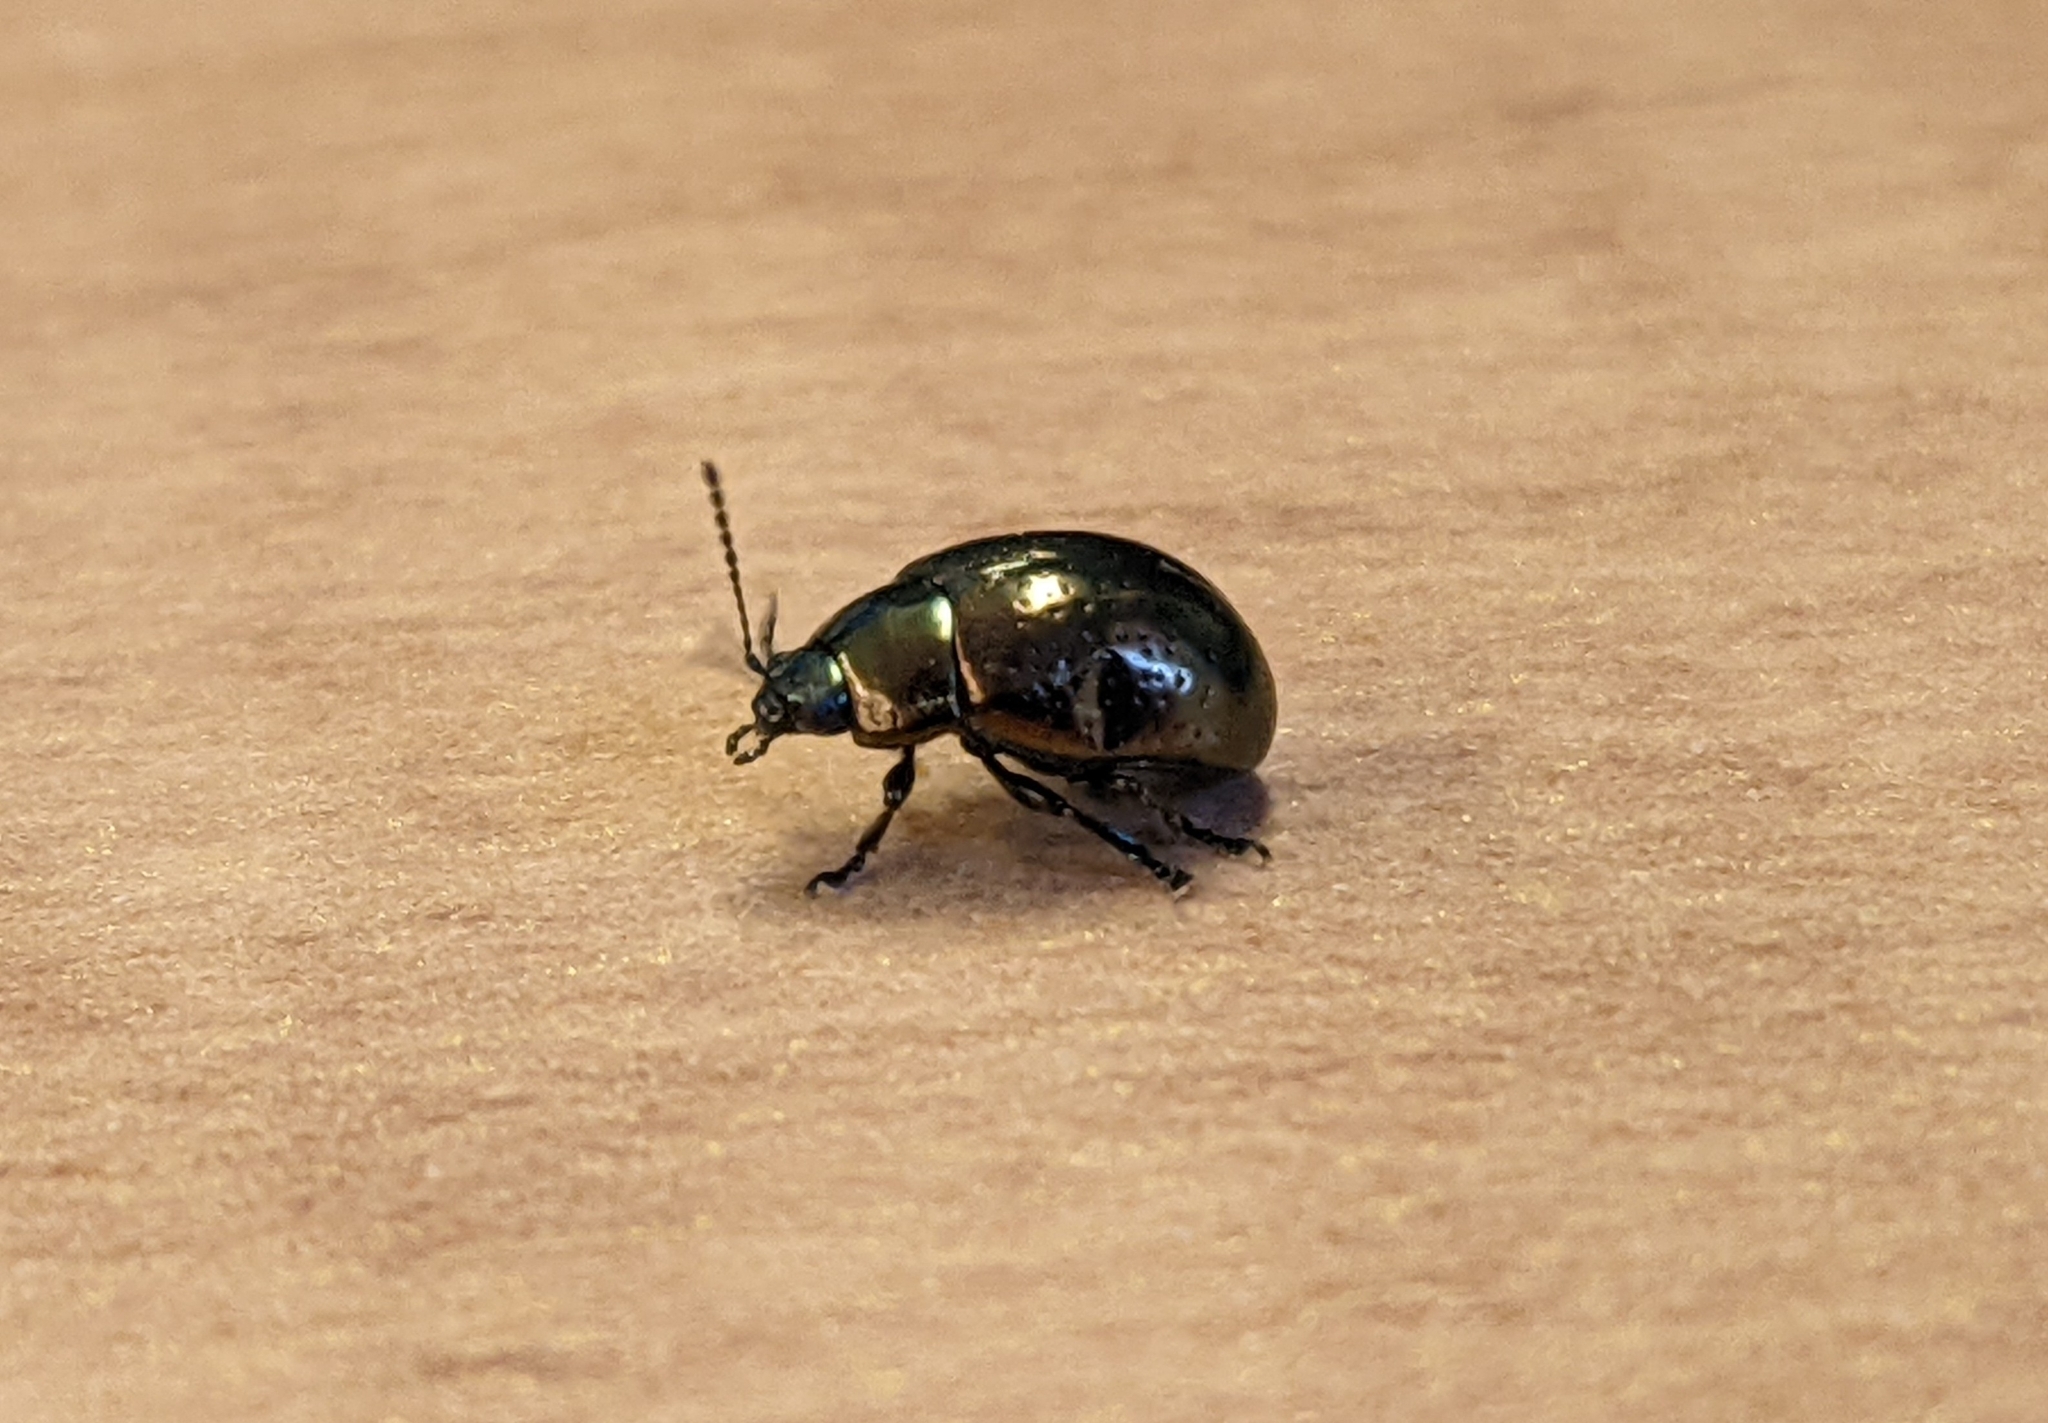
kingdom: Animalia
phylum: Arthropoda
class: Insecta
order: Coleoptera
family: Chrysomelidae
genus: Chrysolina
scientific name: Chrysolina hyperici
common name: St. johnswort beetle
